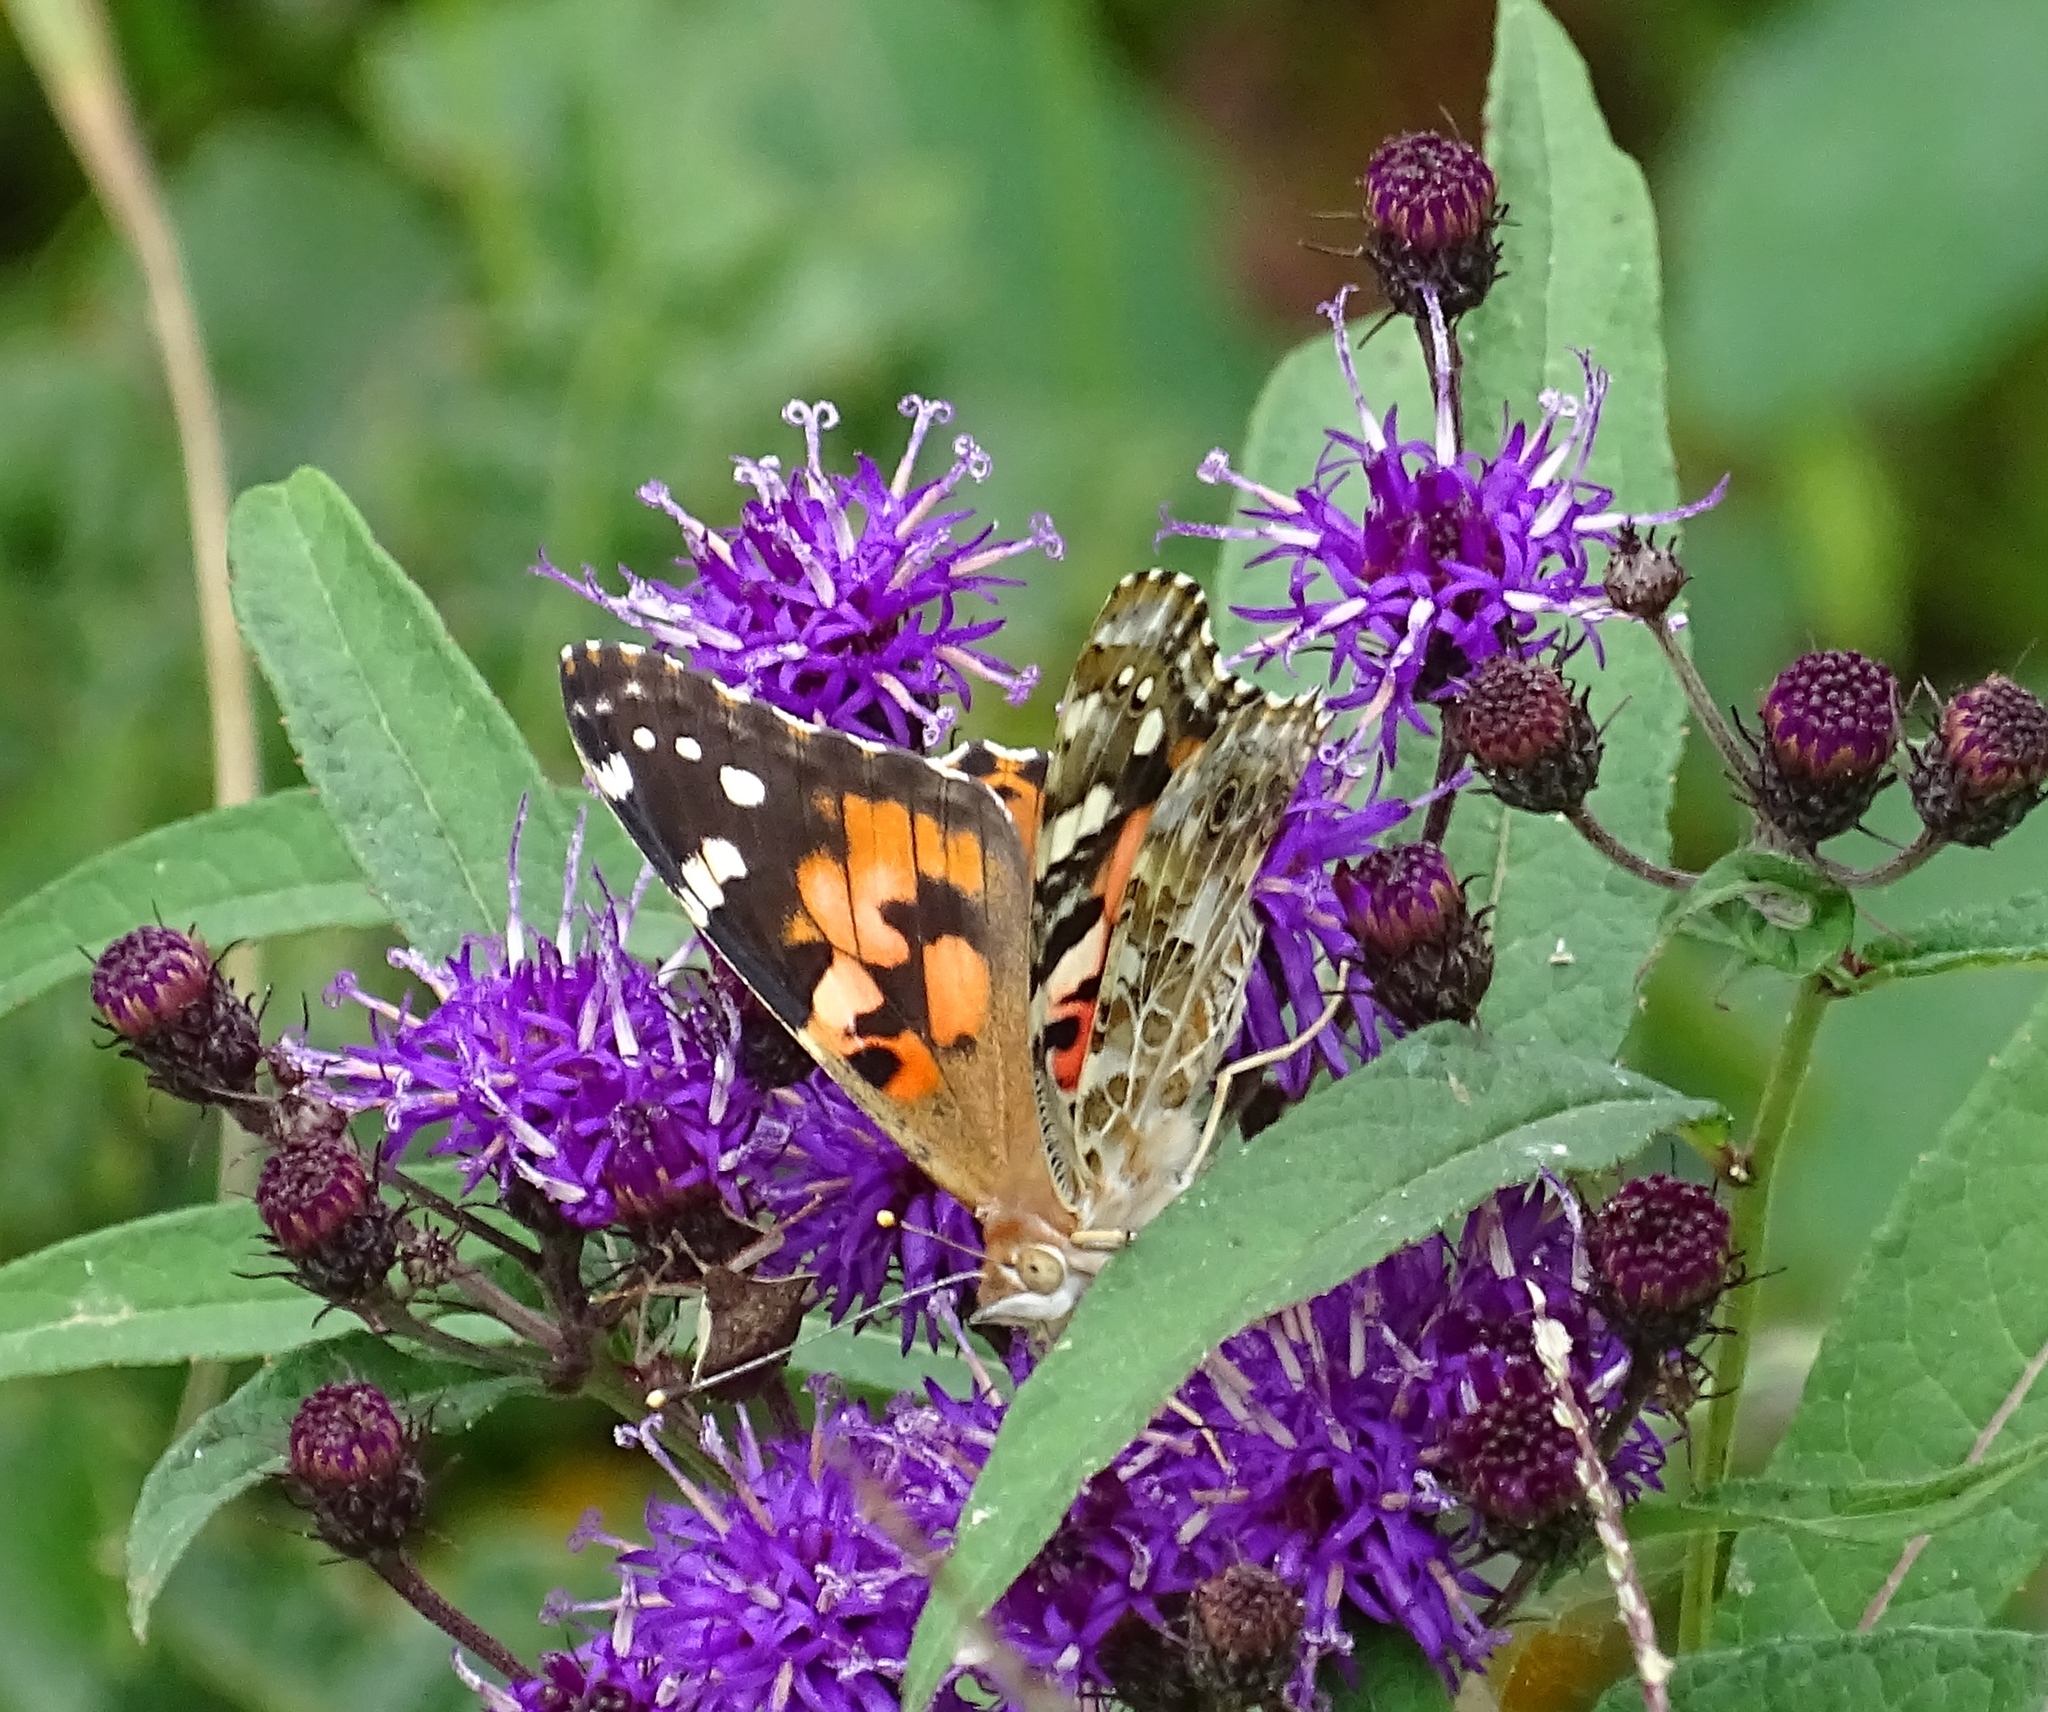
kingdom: Animalia
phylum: Arthropoda
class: Insecta
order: Lepidoptera
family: Nymphalidae
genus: Vanessa
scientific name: Vanessa cardui
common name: Painted lady
